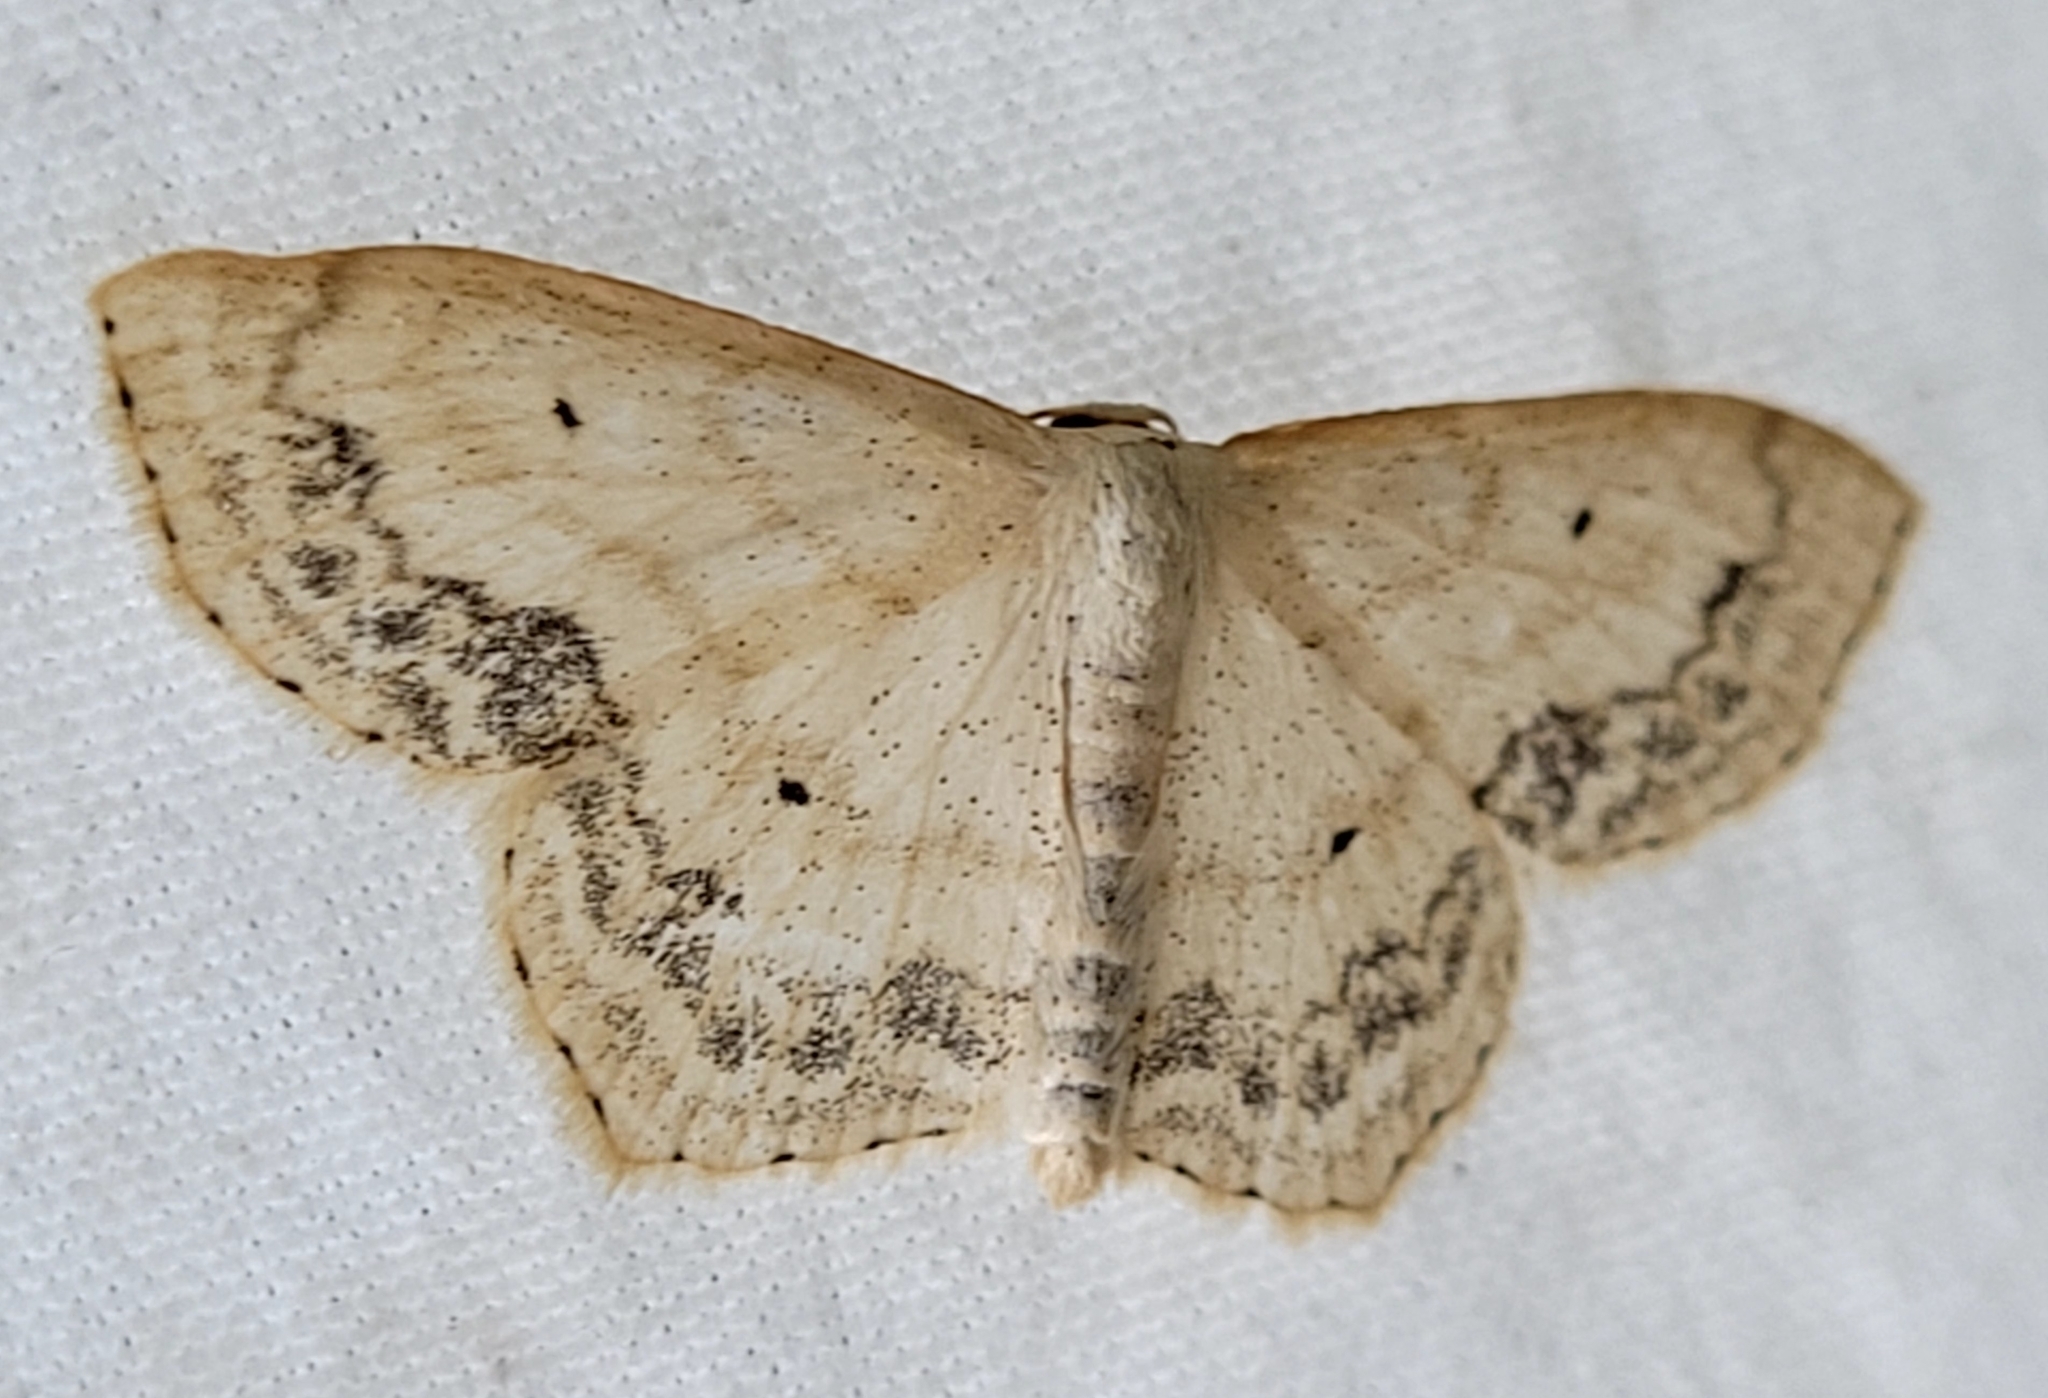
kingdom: Animalia
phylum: Arthropoda
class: Insecta
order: Lepidoptera
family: Geometridae
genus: Scopula
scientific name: Scopula limboundata
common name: Large lace border
